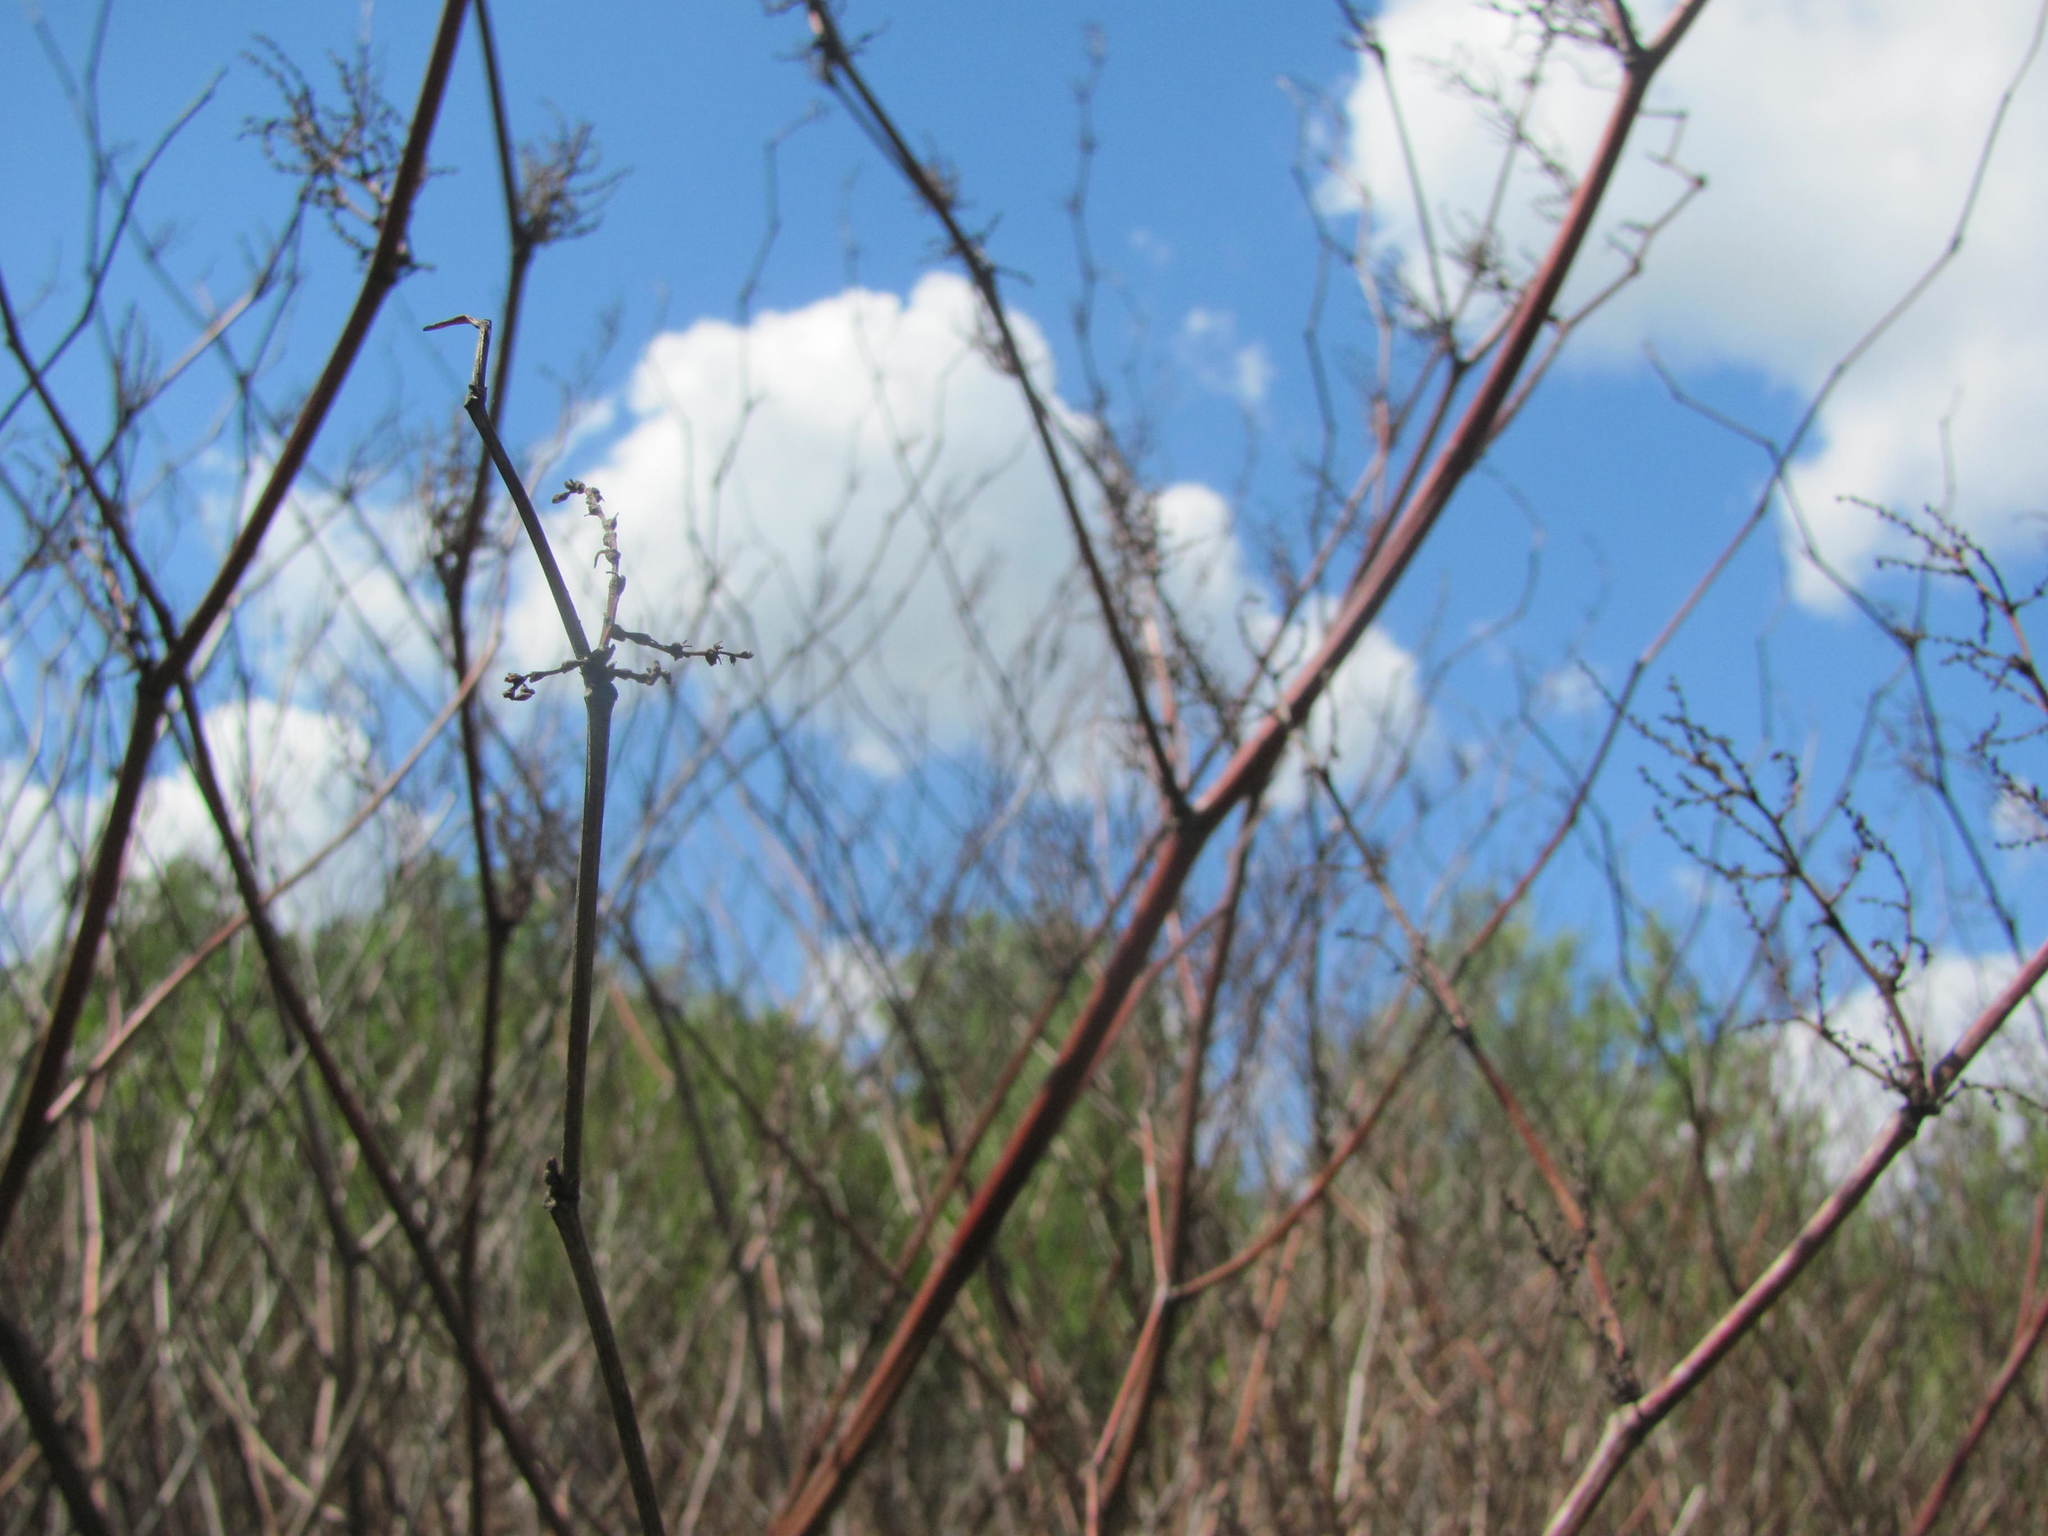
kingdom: Plantae
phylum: Tracheophyta
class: Magnoliopsida
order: Caryophyllales
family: Polygonaceae
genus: Reynoutria
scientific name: Reynoutria bohemica
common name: Bohemian knotweed
